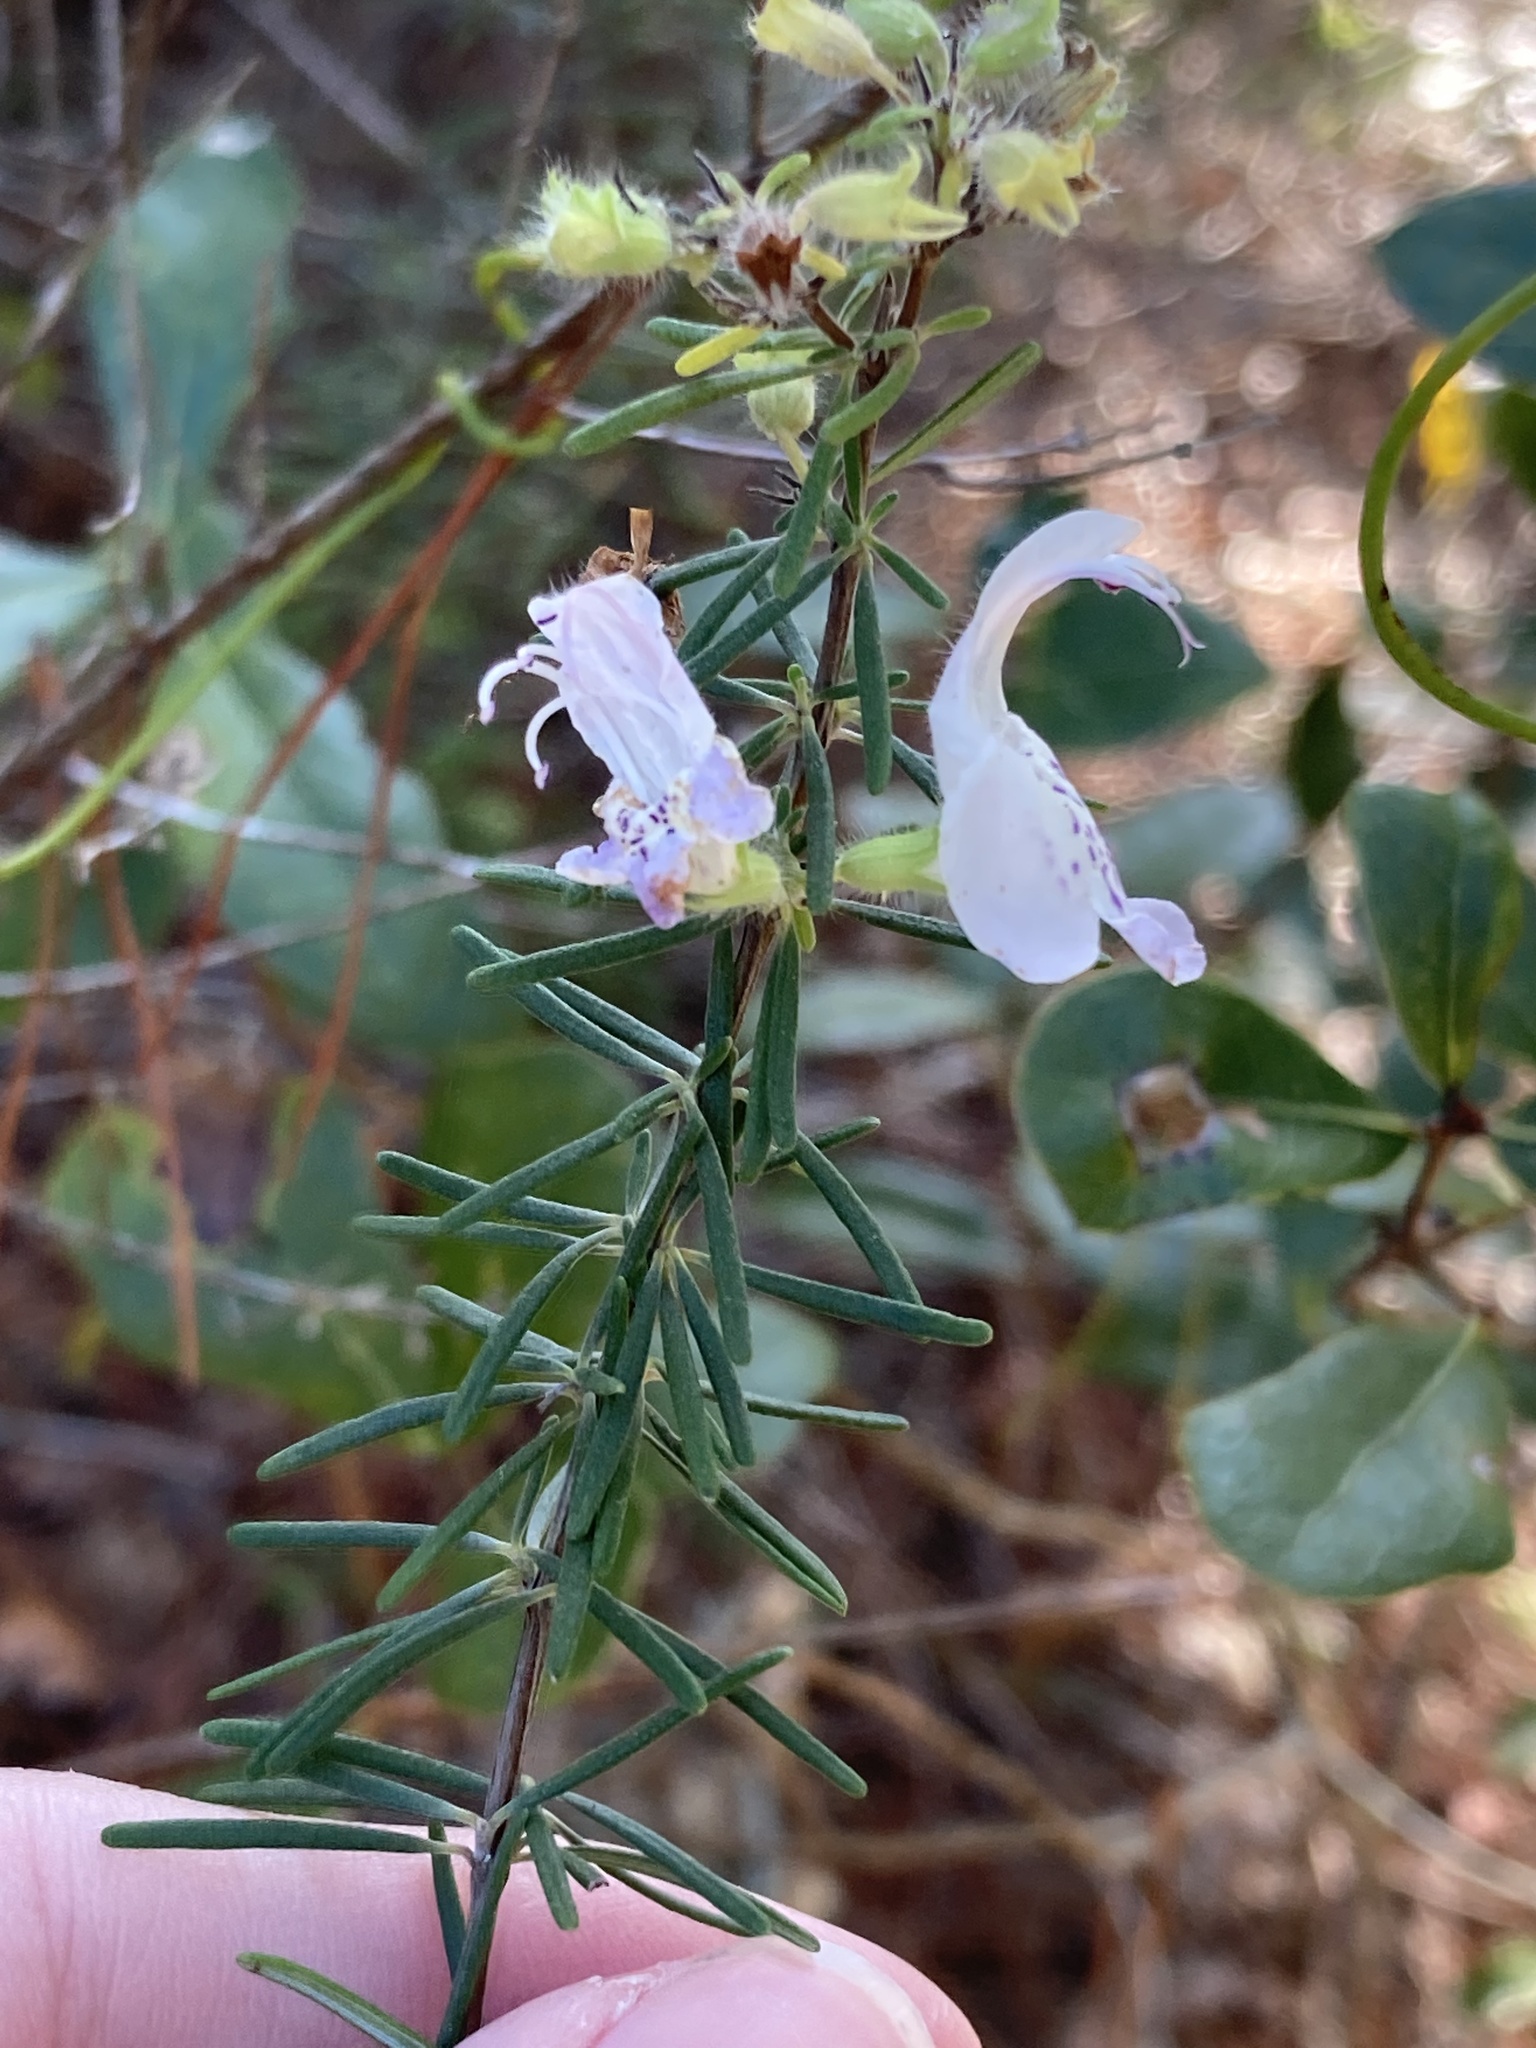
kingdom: Plantae
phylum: Tracheophyta
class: Magnoliopsida
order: Lamiales
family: Lamiaceae
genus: Conradina
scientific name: Conradina grandiflora
